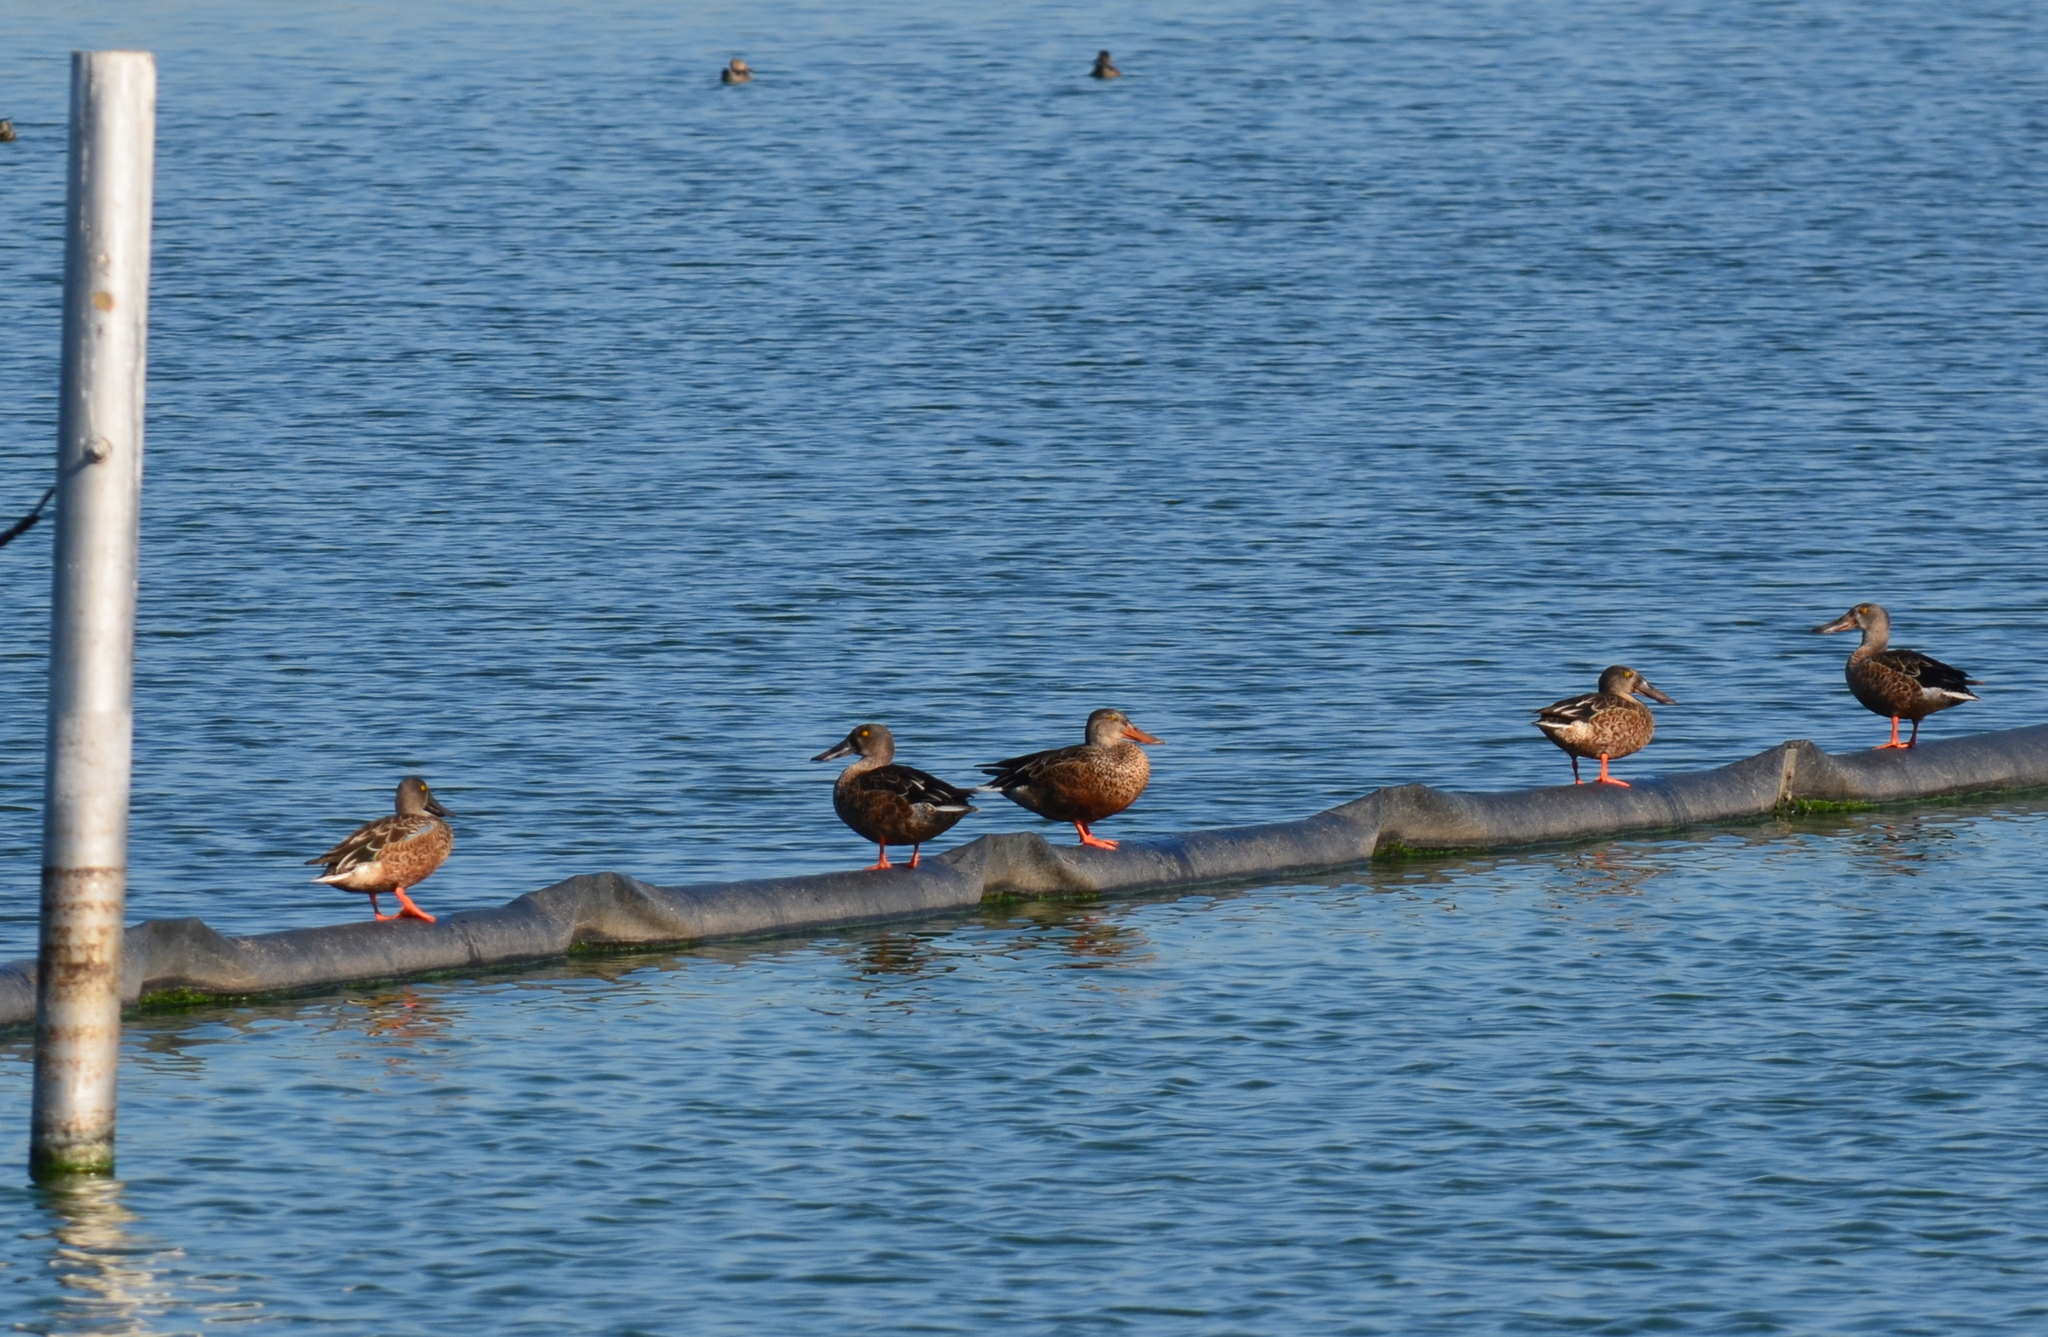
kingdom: Animalia
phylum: Chordata
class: Aves
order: Anseriformes
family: Anatidae
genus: Spatula
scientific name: Spatula clypeata
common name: Northern shoveler
